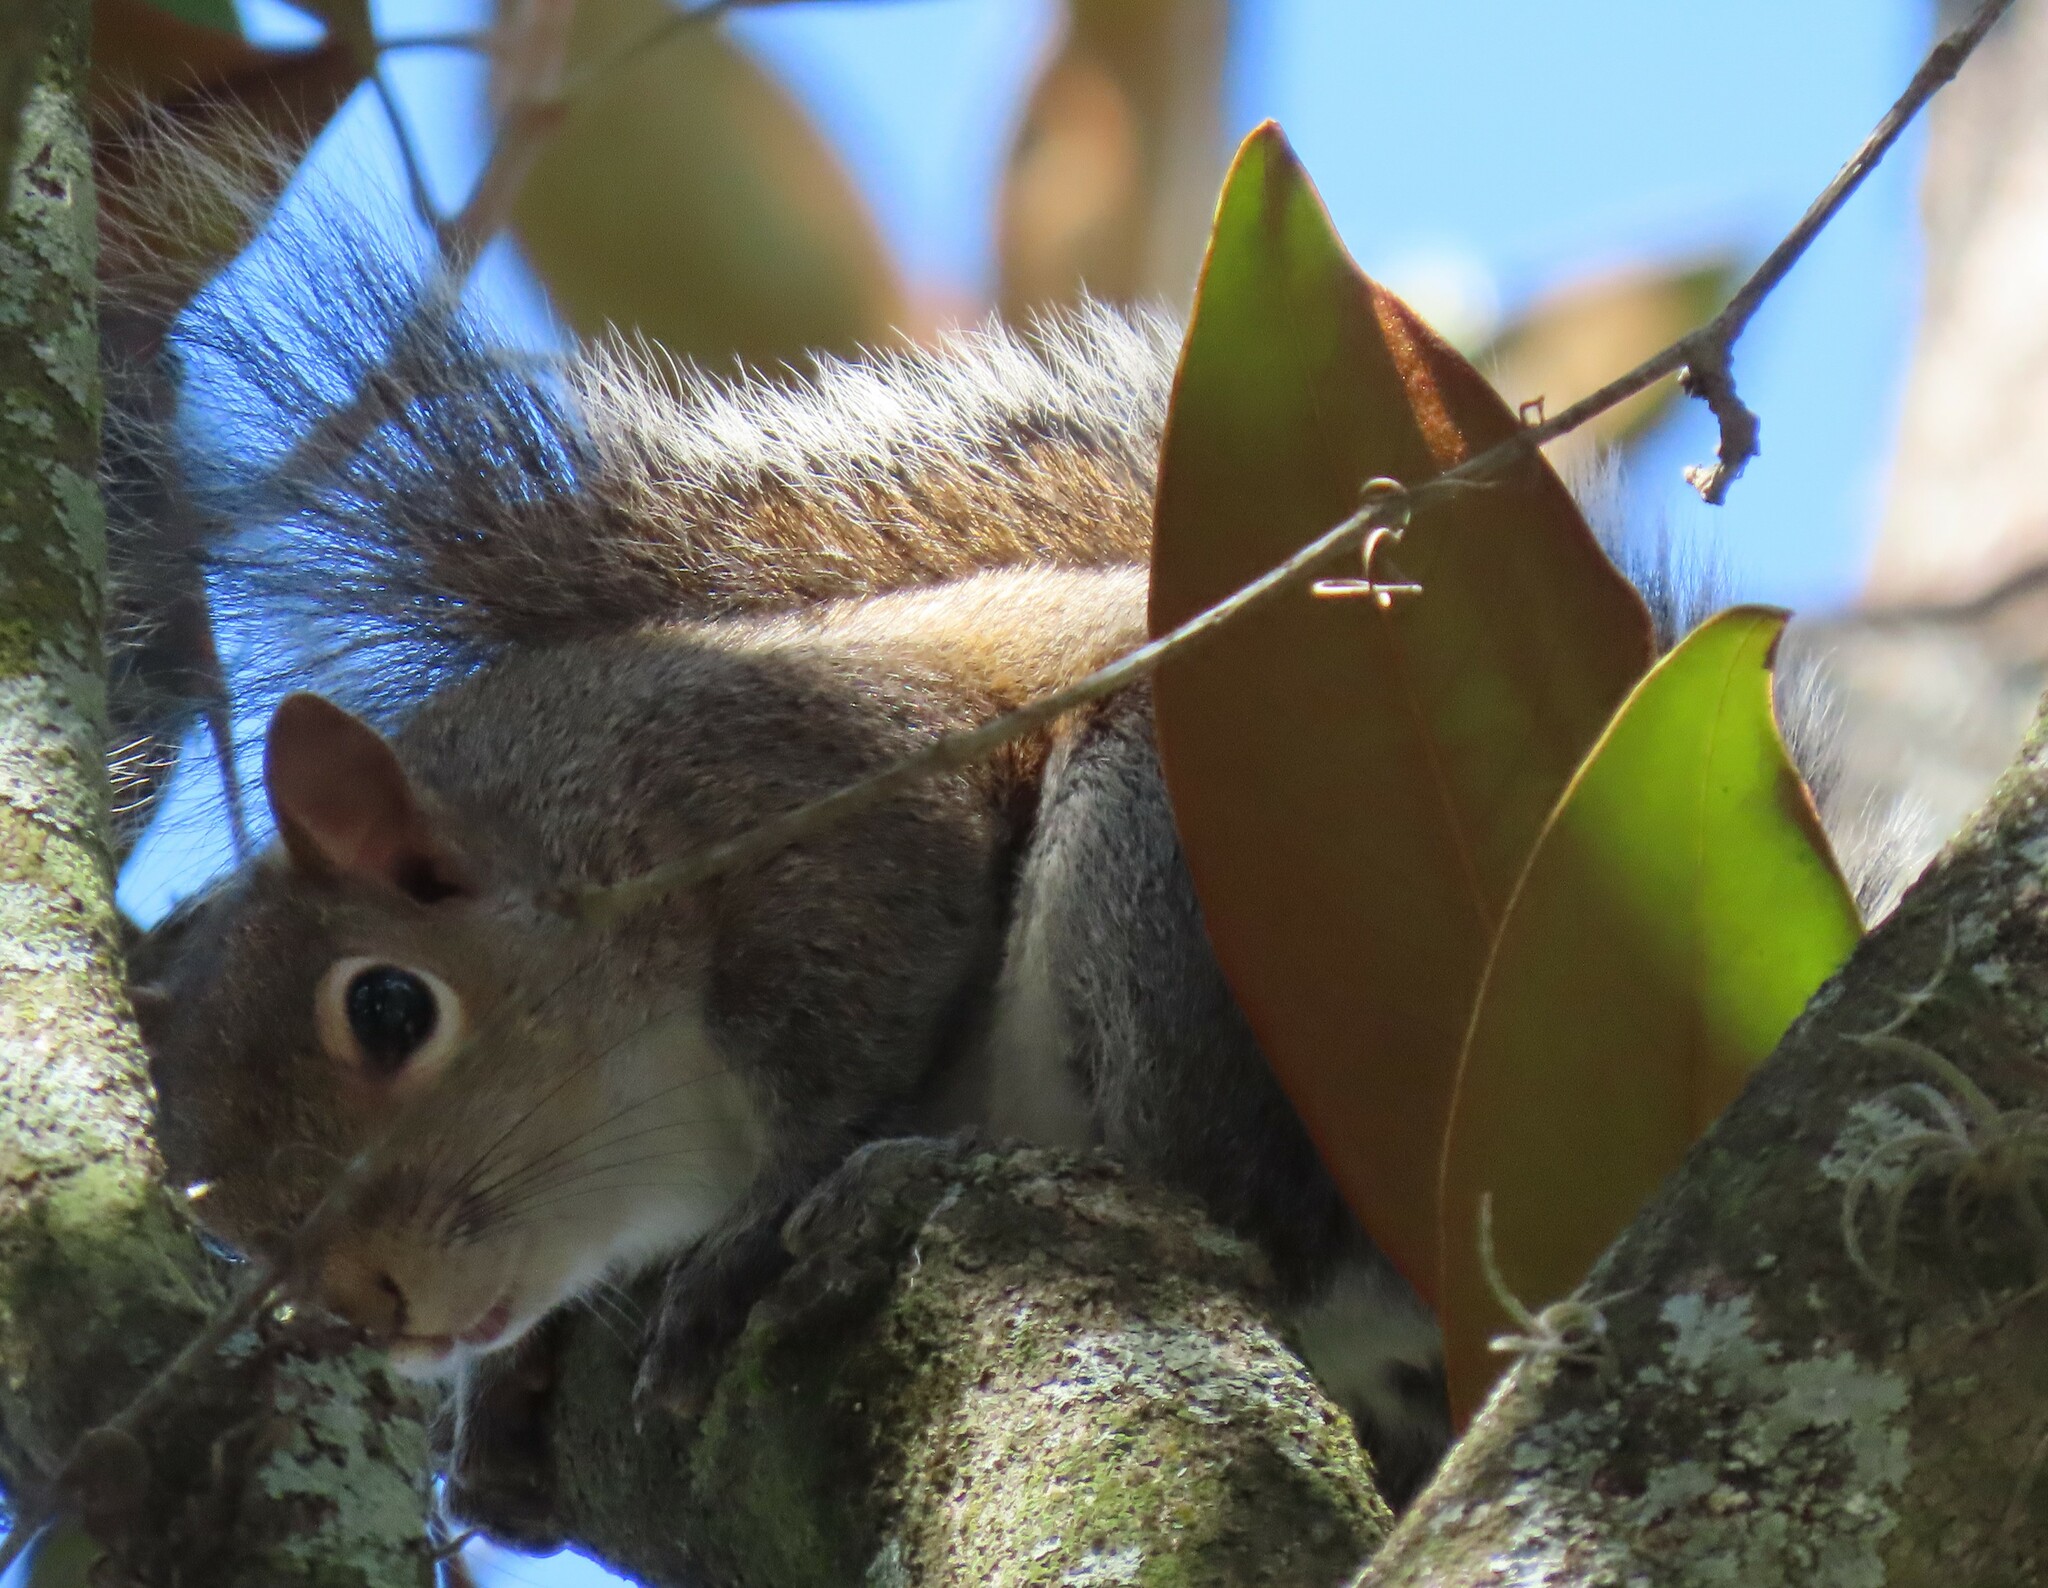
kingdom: Animalia
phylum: Chordata
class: Mammalia
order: Rodentia
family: Sciuridae
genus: Sciurus
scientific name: Sciurus carolinensis
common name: Eastern gray squirrel
